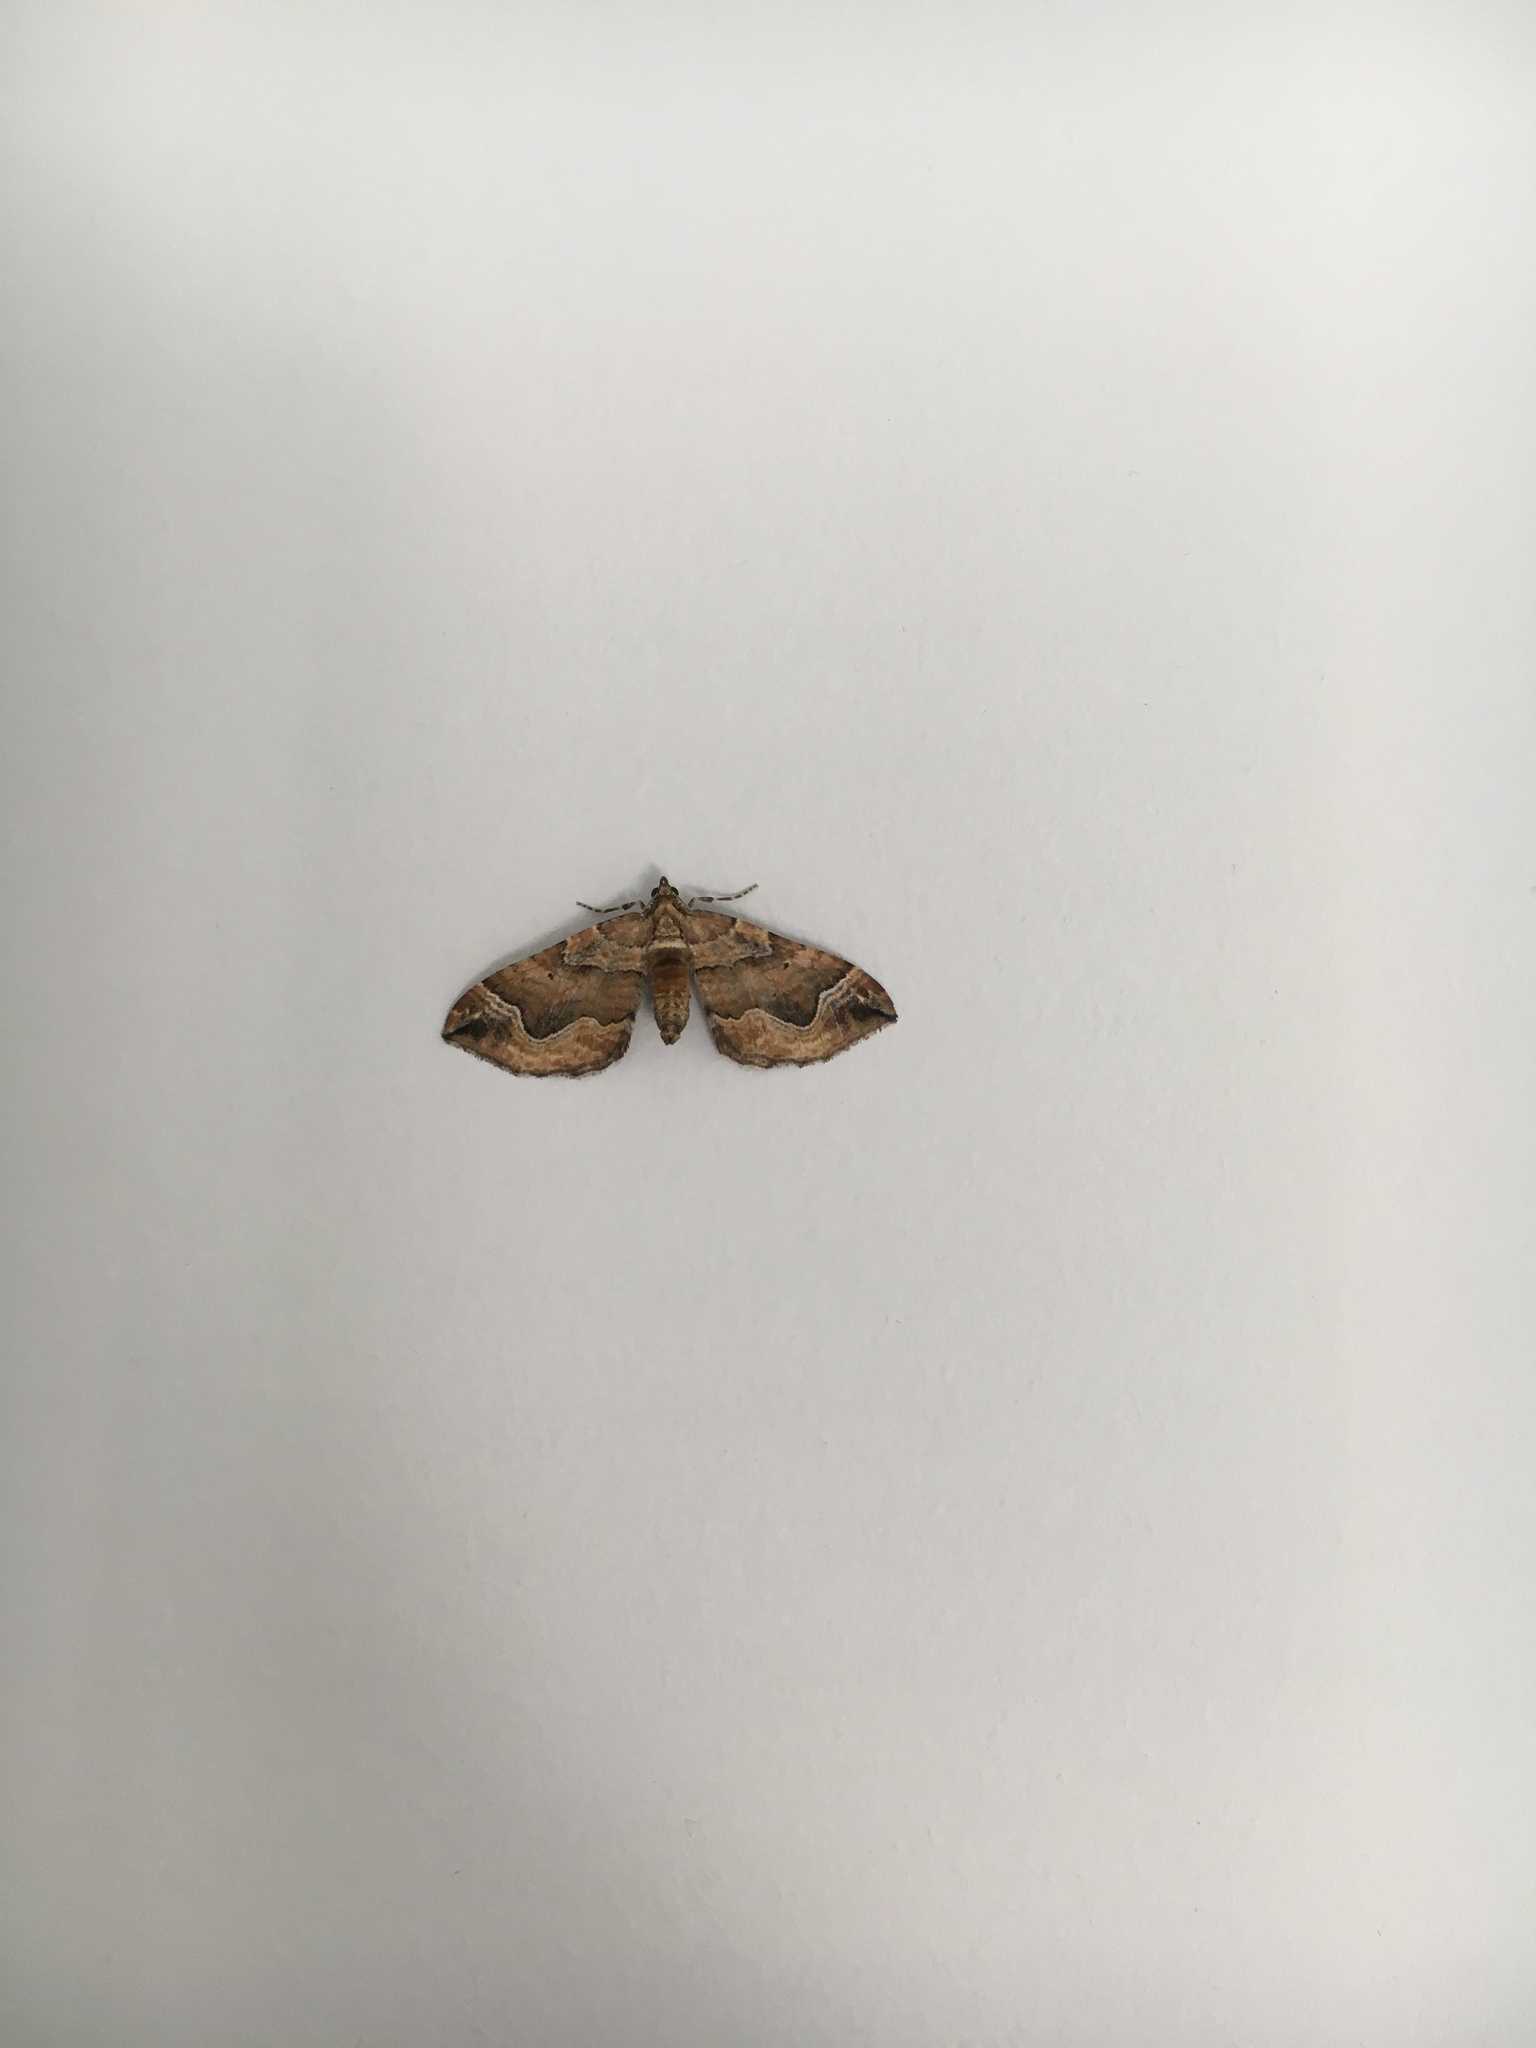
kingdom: Animalia
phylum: Arthropoda
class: Insecta
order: Lepidoptera
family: Geometridae
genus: Pelurga
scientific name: Pelurga comitata
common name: Dark spinach
